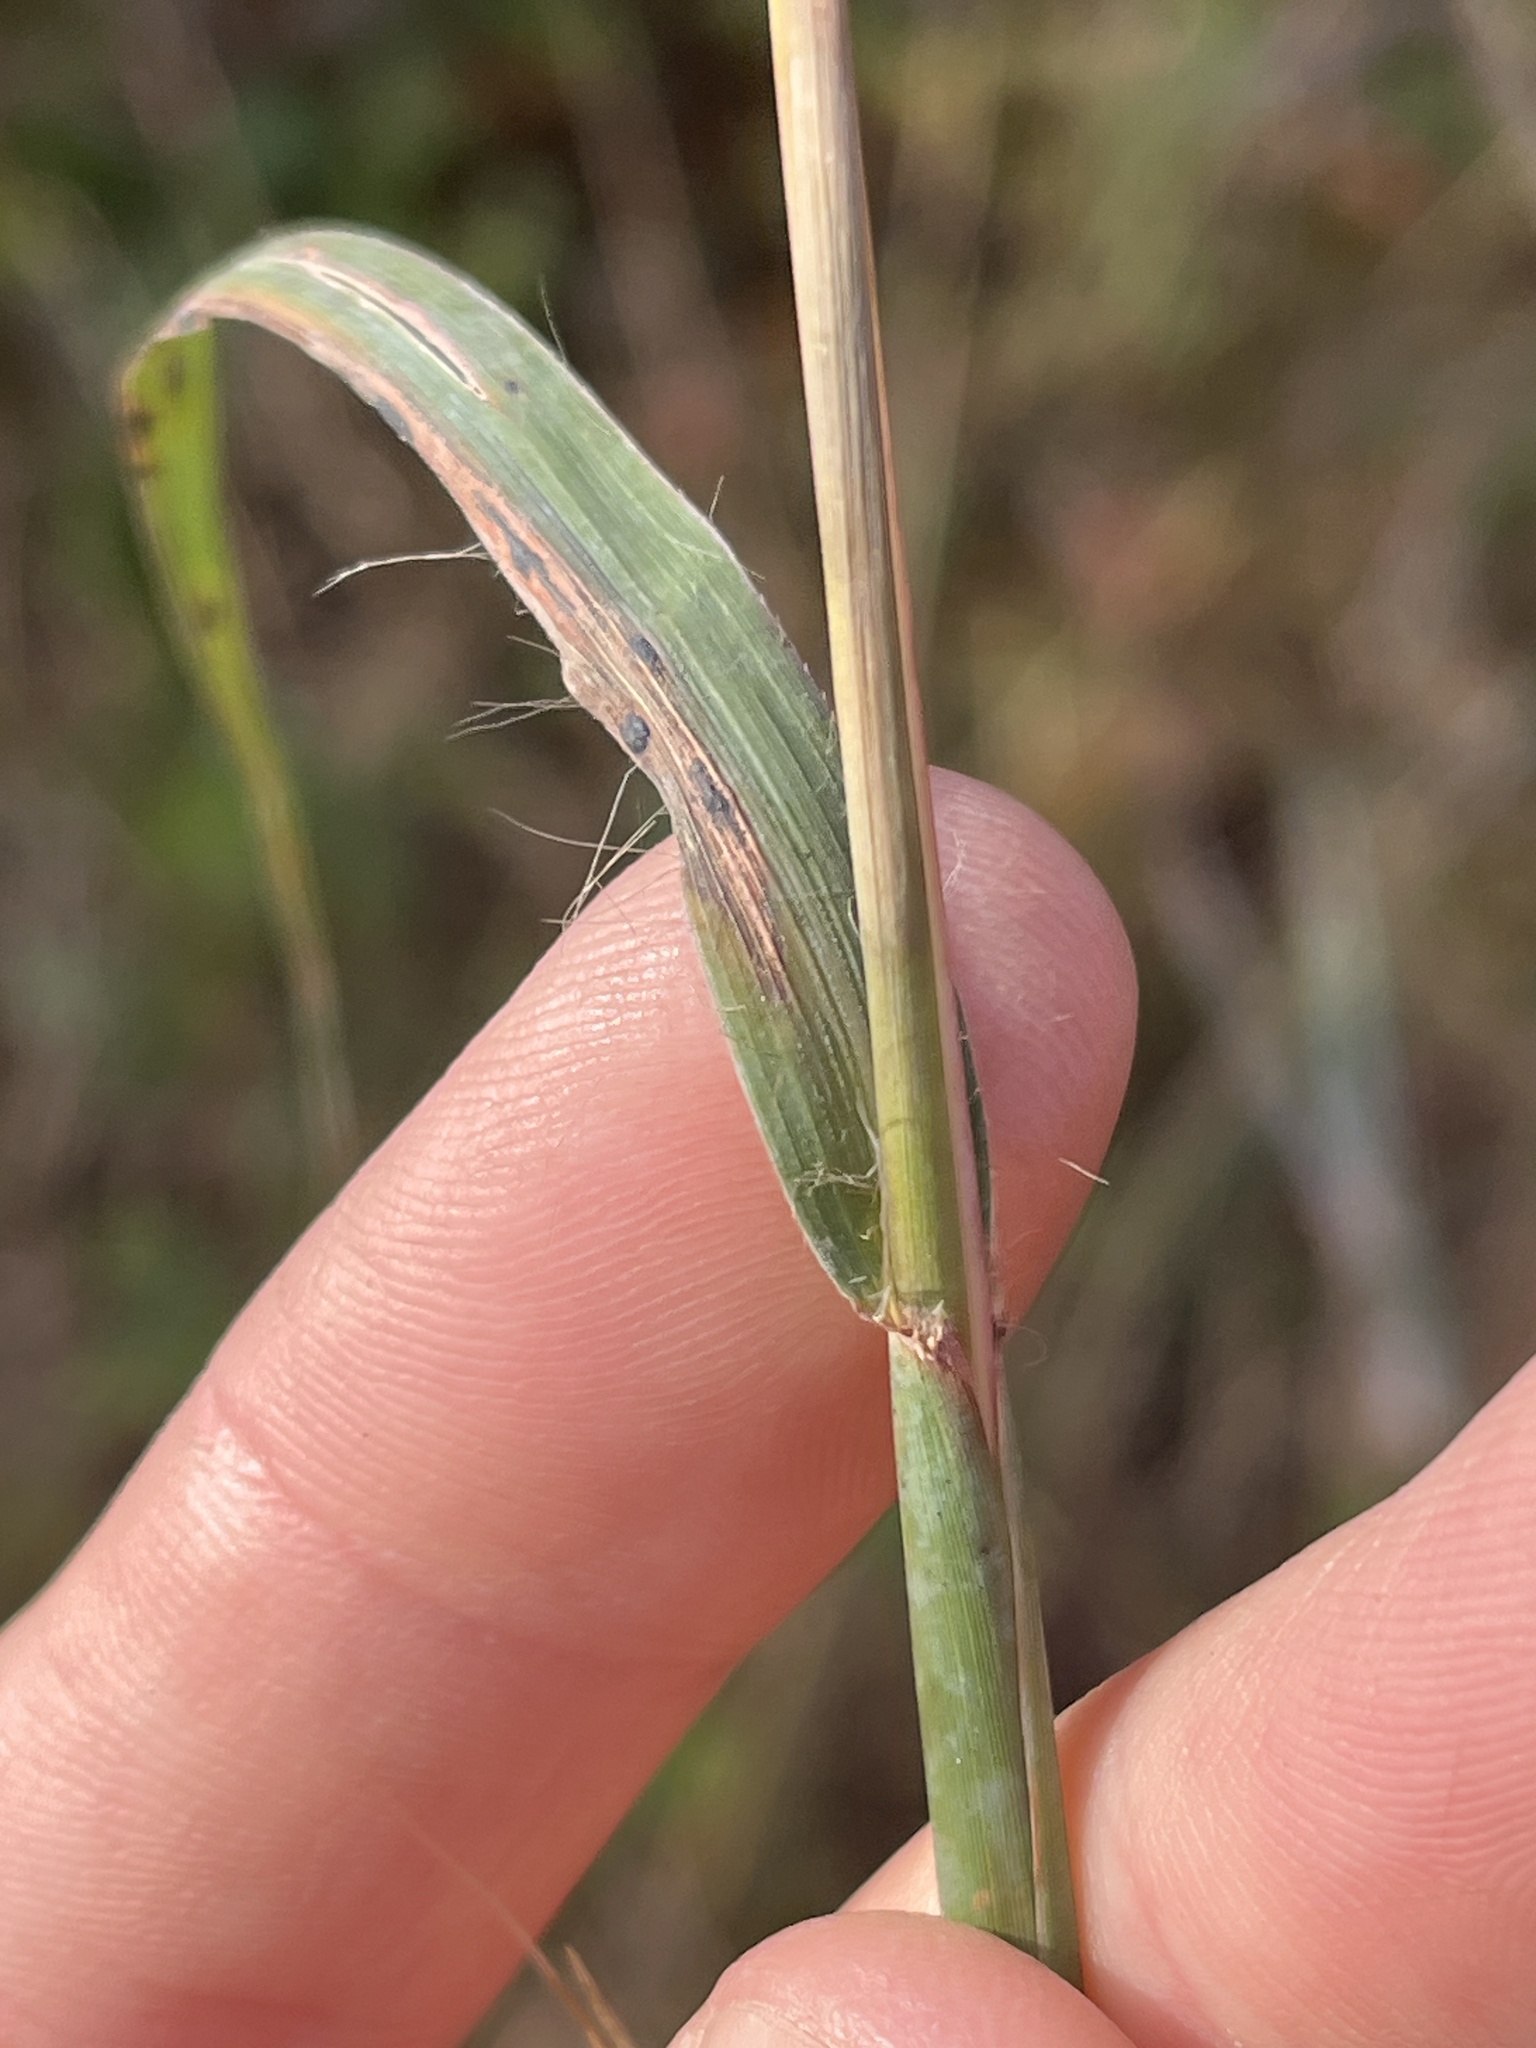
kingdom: Plantae
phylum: Tracheophyta
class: Liliopsida
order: Poales
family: Poaceae
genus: Andropogon
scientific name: Andropogon gerardi
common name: Big bluestem
